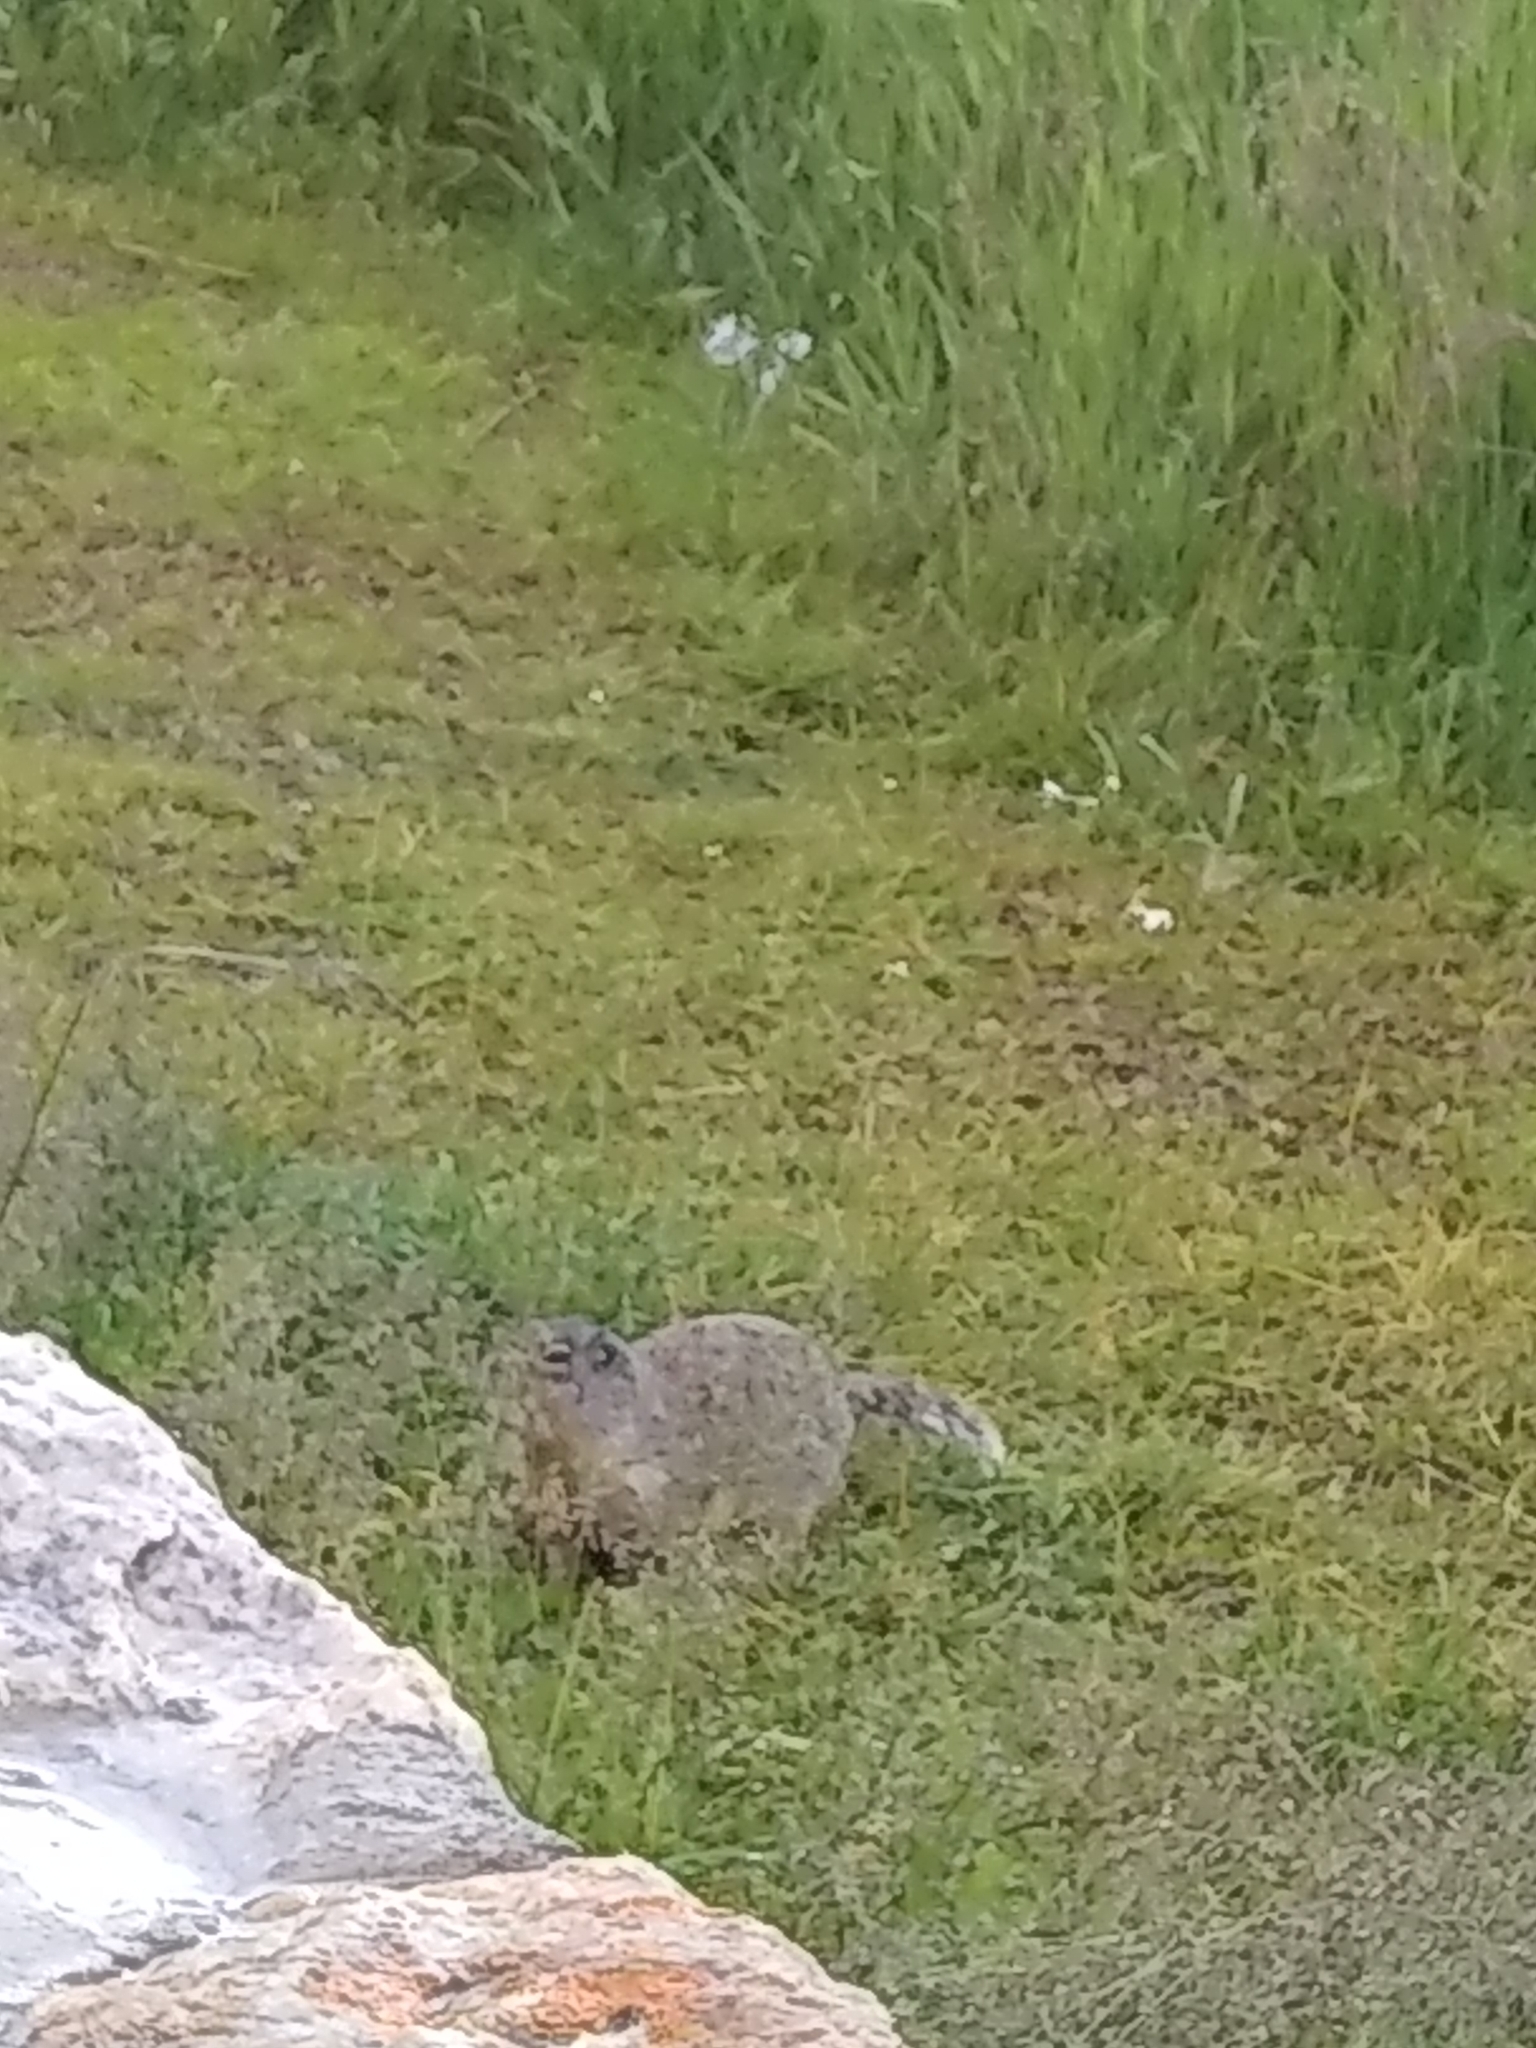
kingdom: Animalia
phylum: Chordata
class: Mammalia
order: Rodentia
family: Sciuridae
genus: Urocitellus
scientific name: Urocitellus columbianus
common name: Columbian ground squirrel
